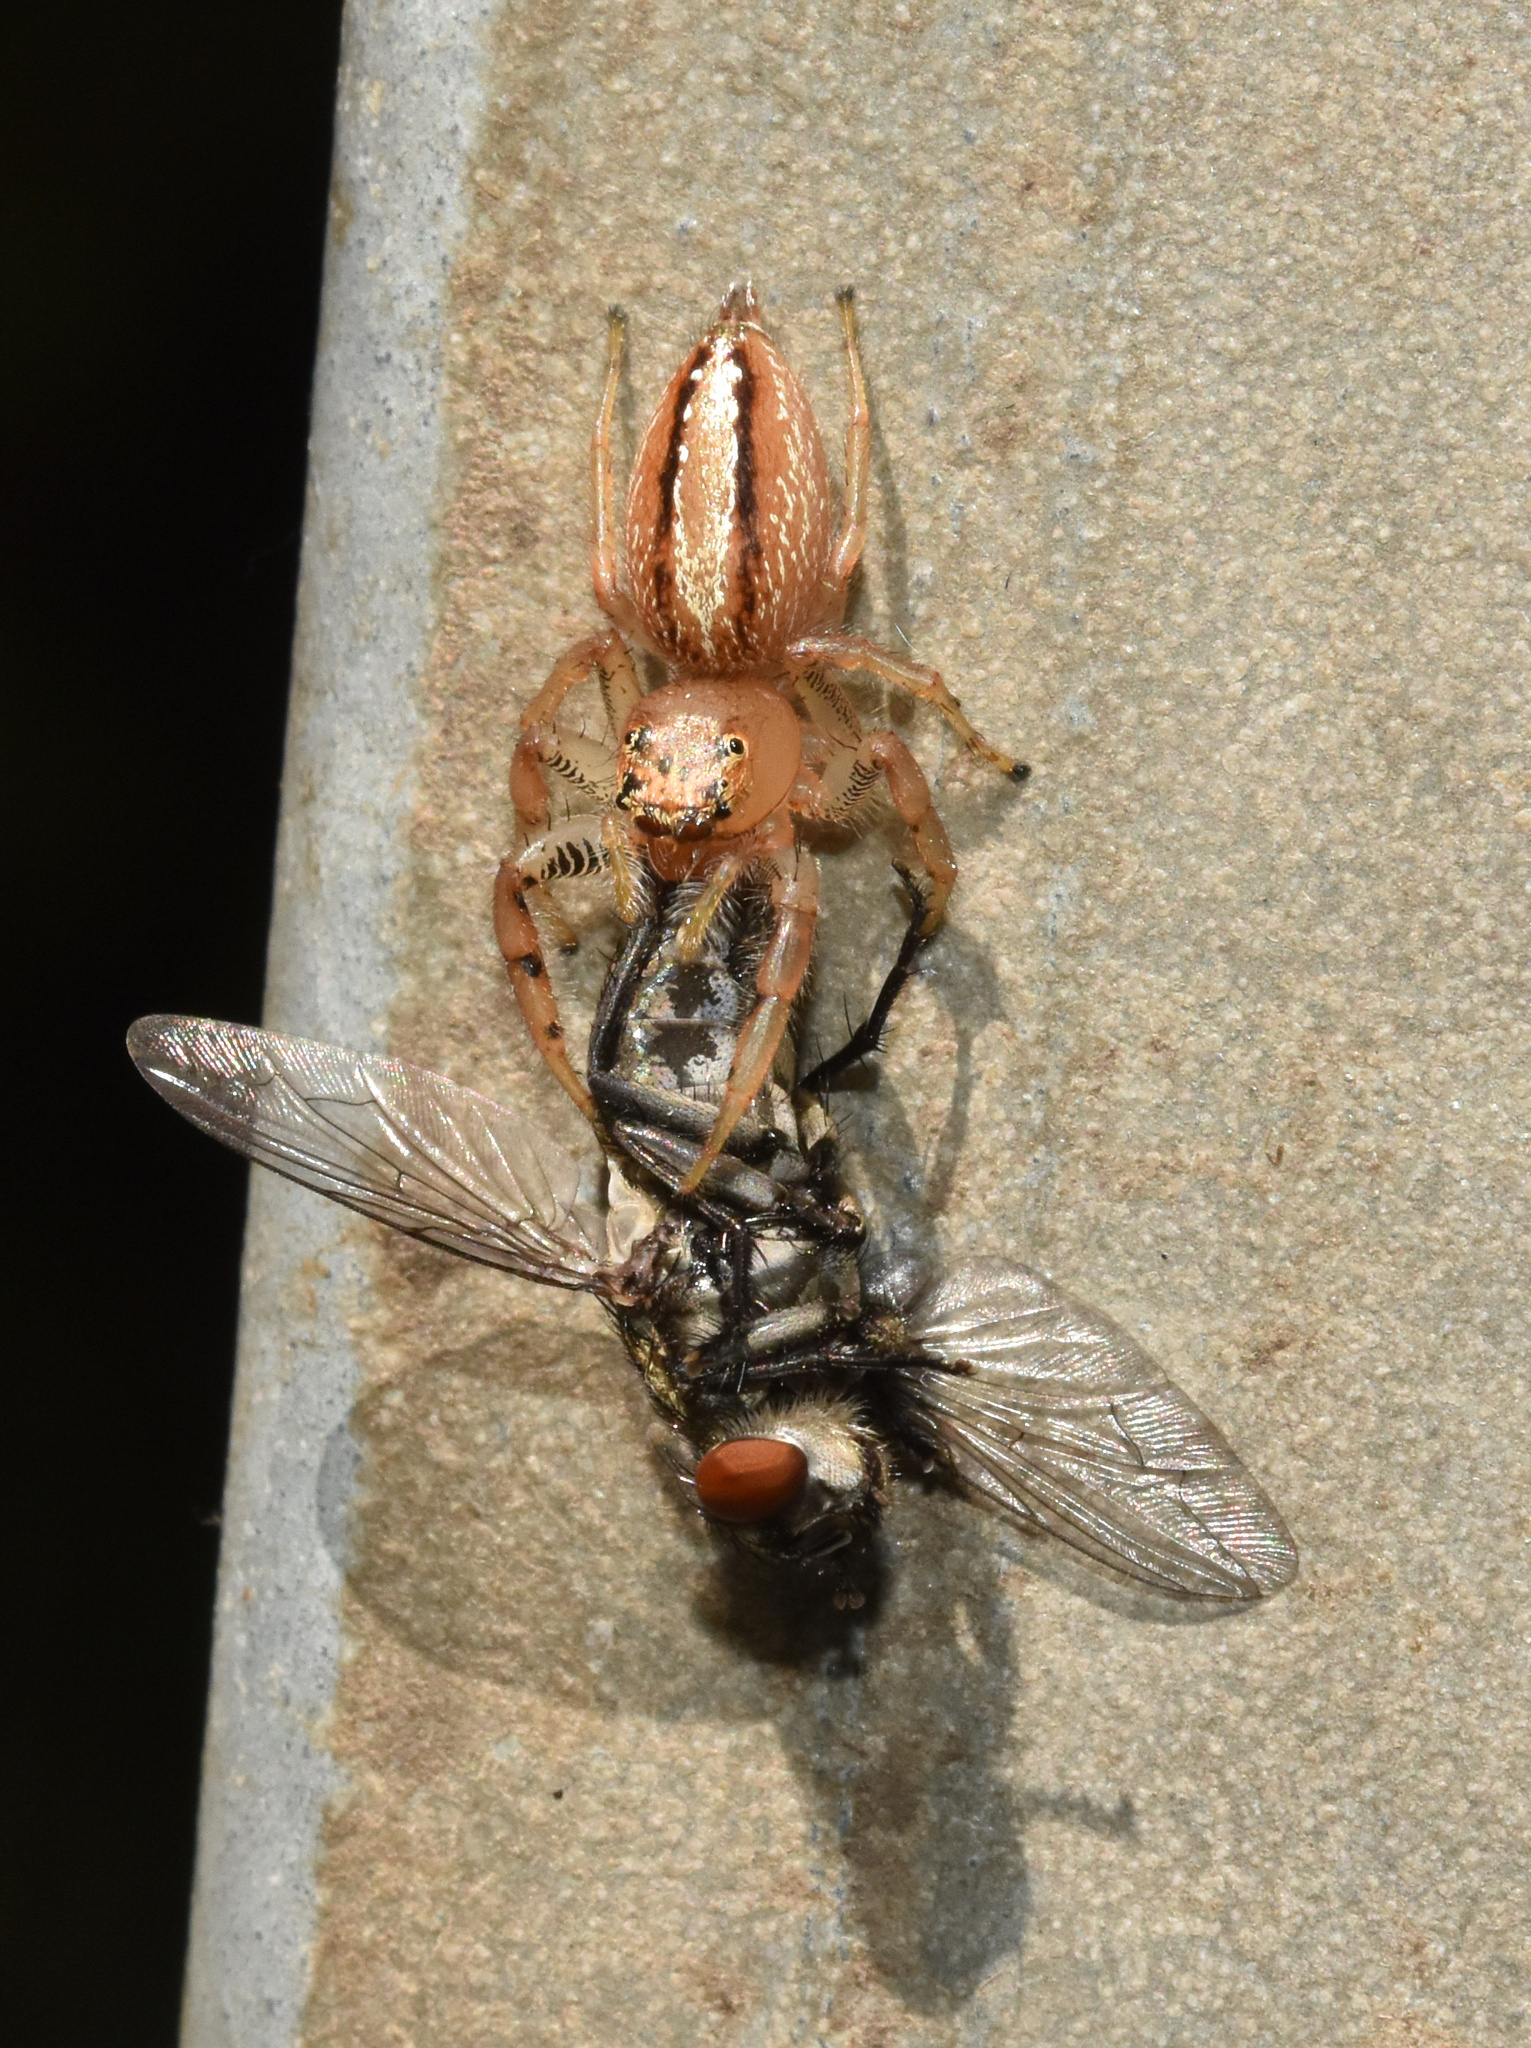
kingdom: Animalia
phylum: Arthropoda
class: Arachnida
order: Araneae
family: Salticidae
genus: Thyene
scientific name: Thyene ogdeni
